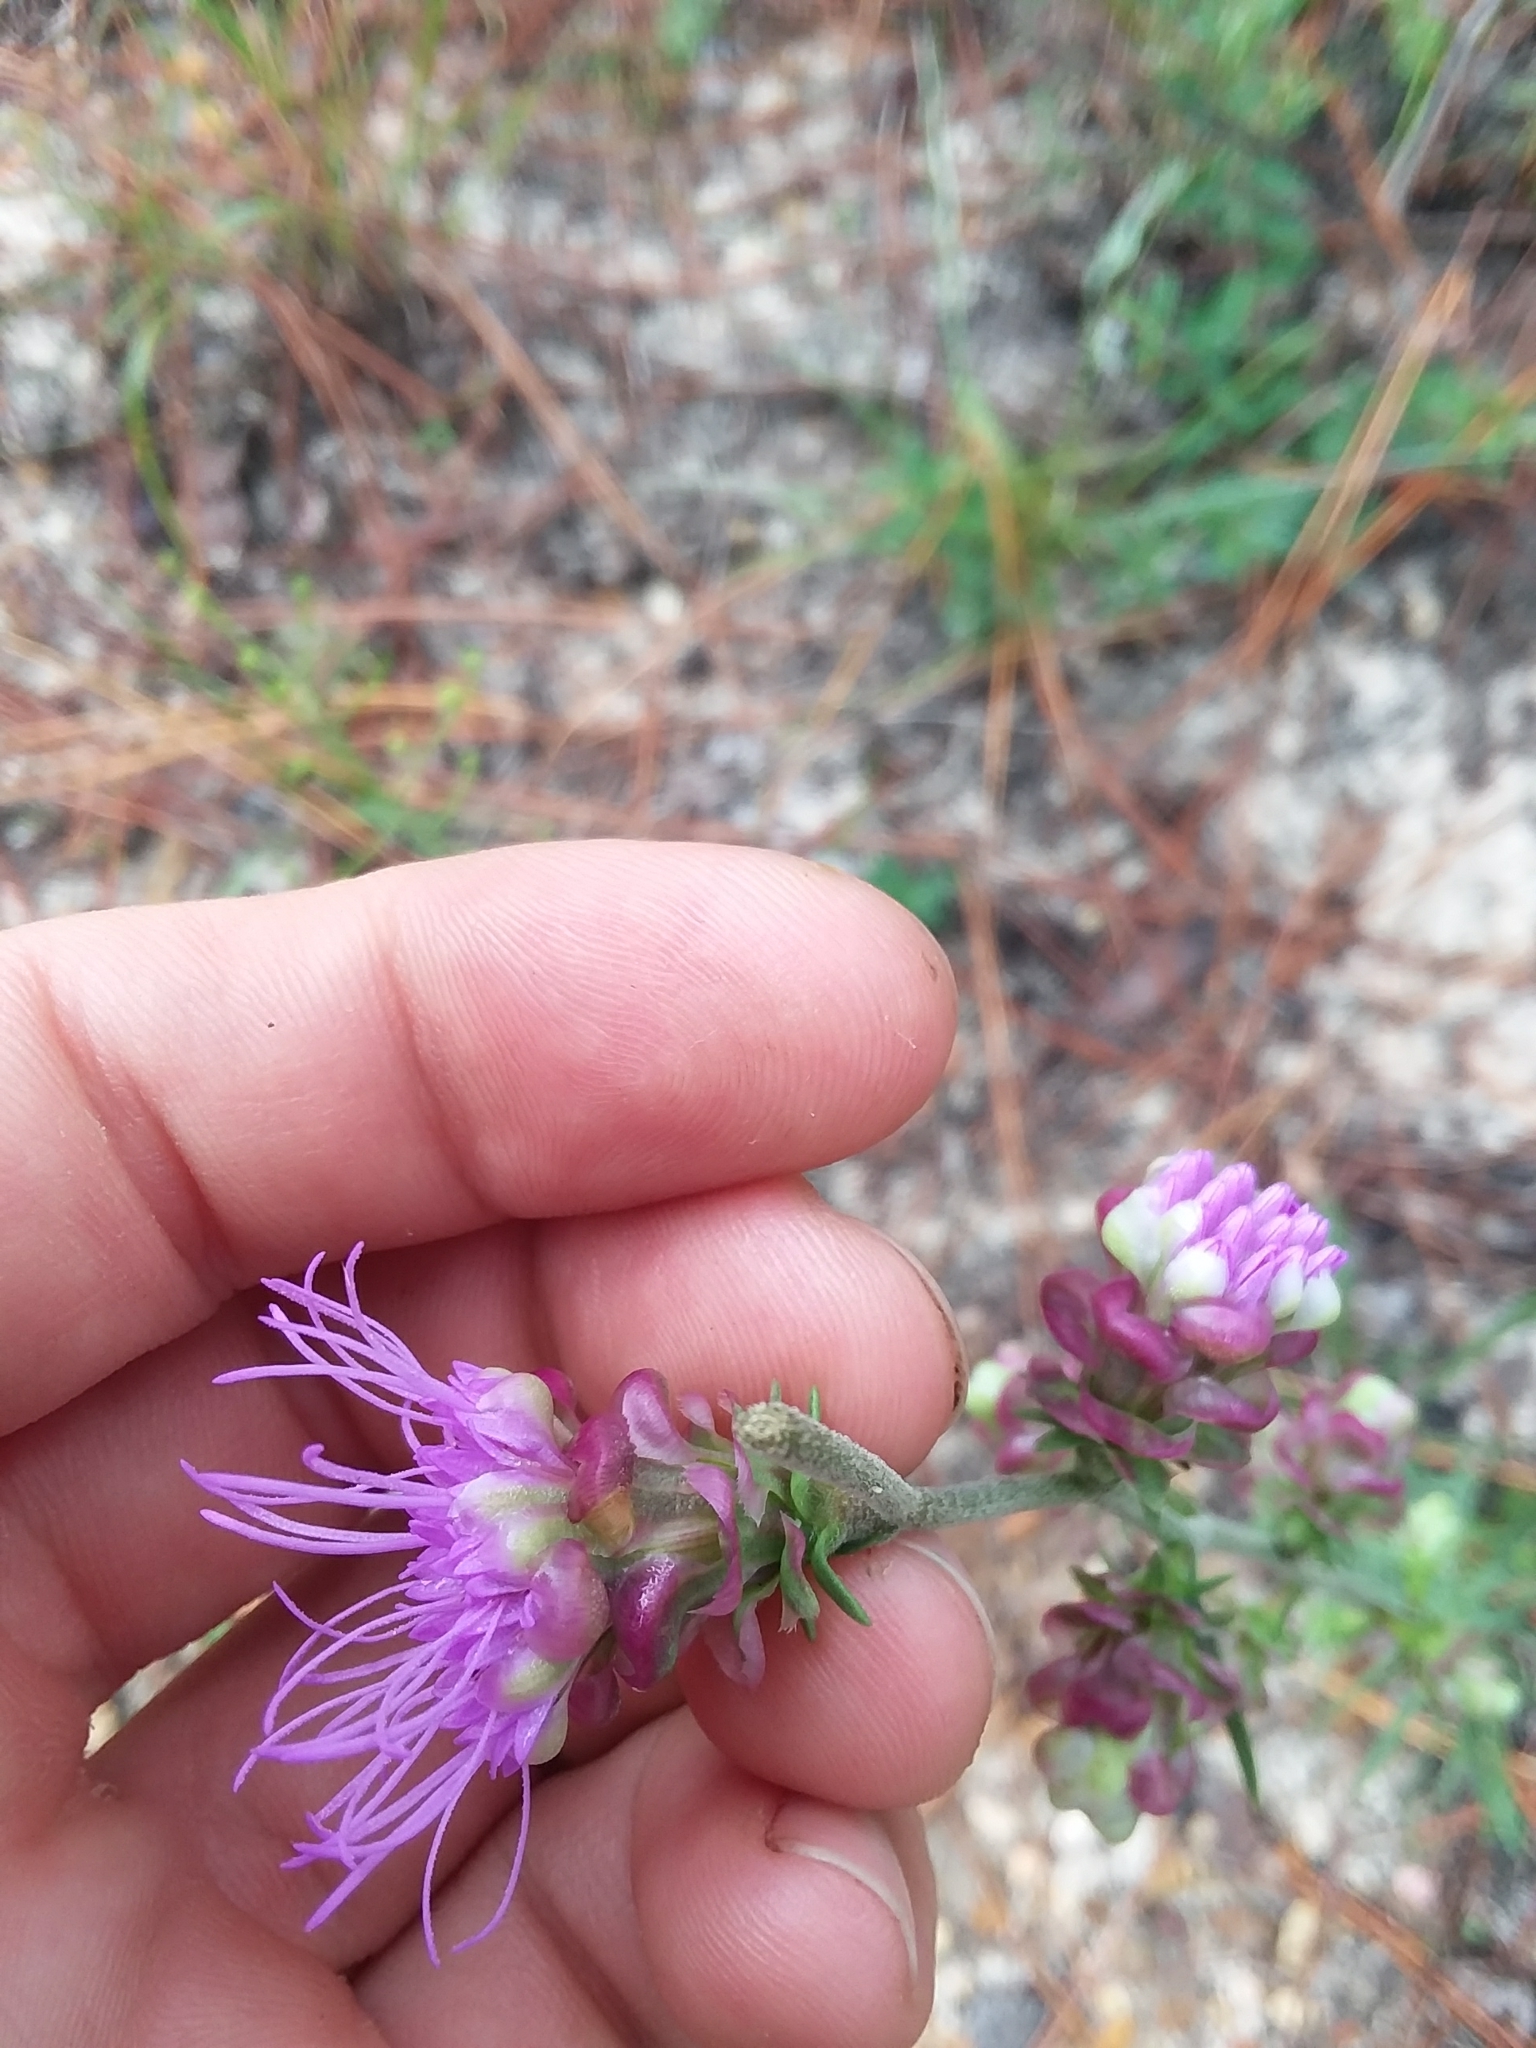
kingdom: Plantae
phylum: Tracheophyta
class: Magnoliopsida
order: Asterales
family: Asteraceae
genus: Liatris
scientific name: Liatris aspera
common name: Lacerate blazing-star
